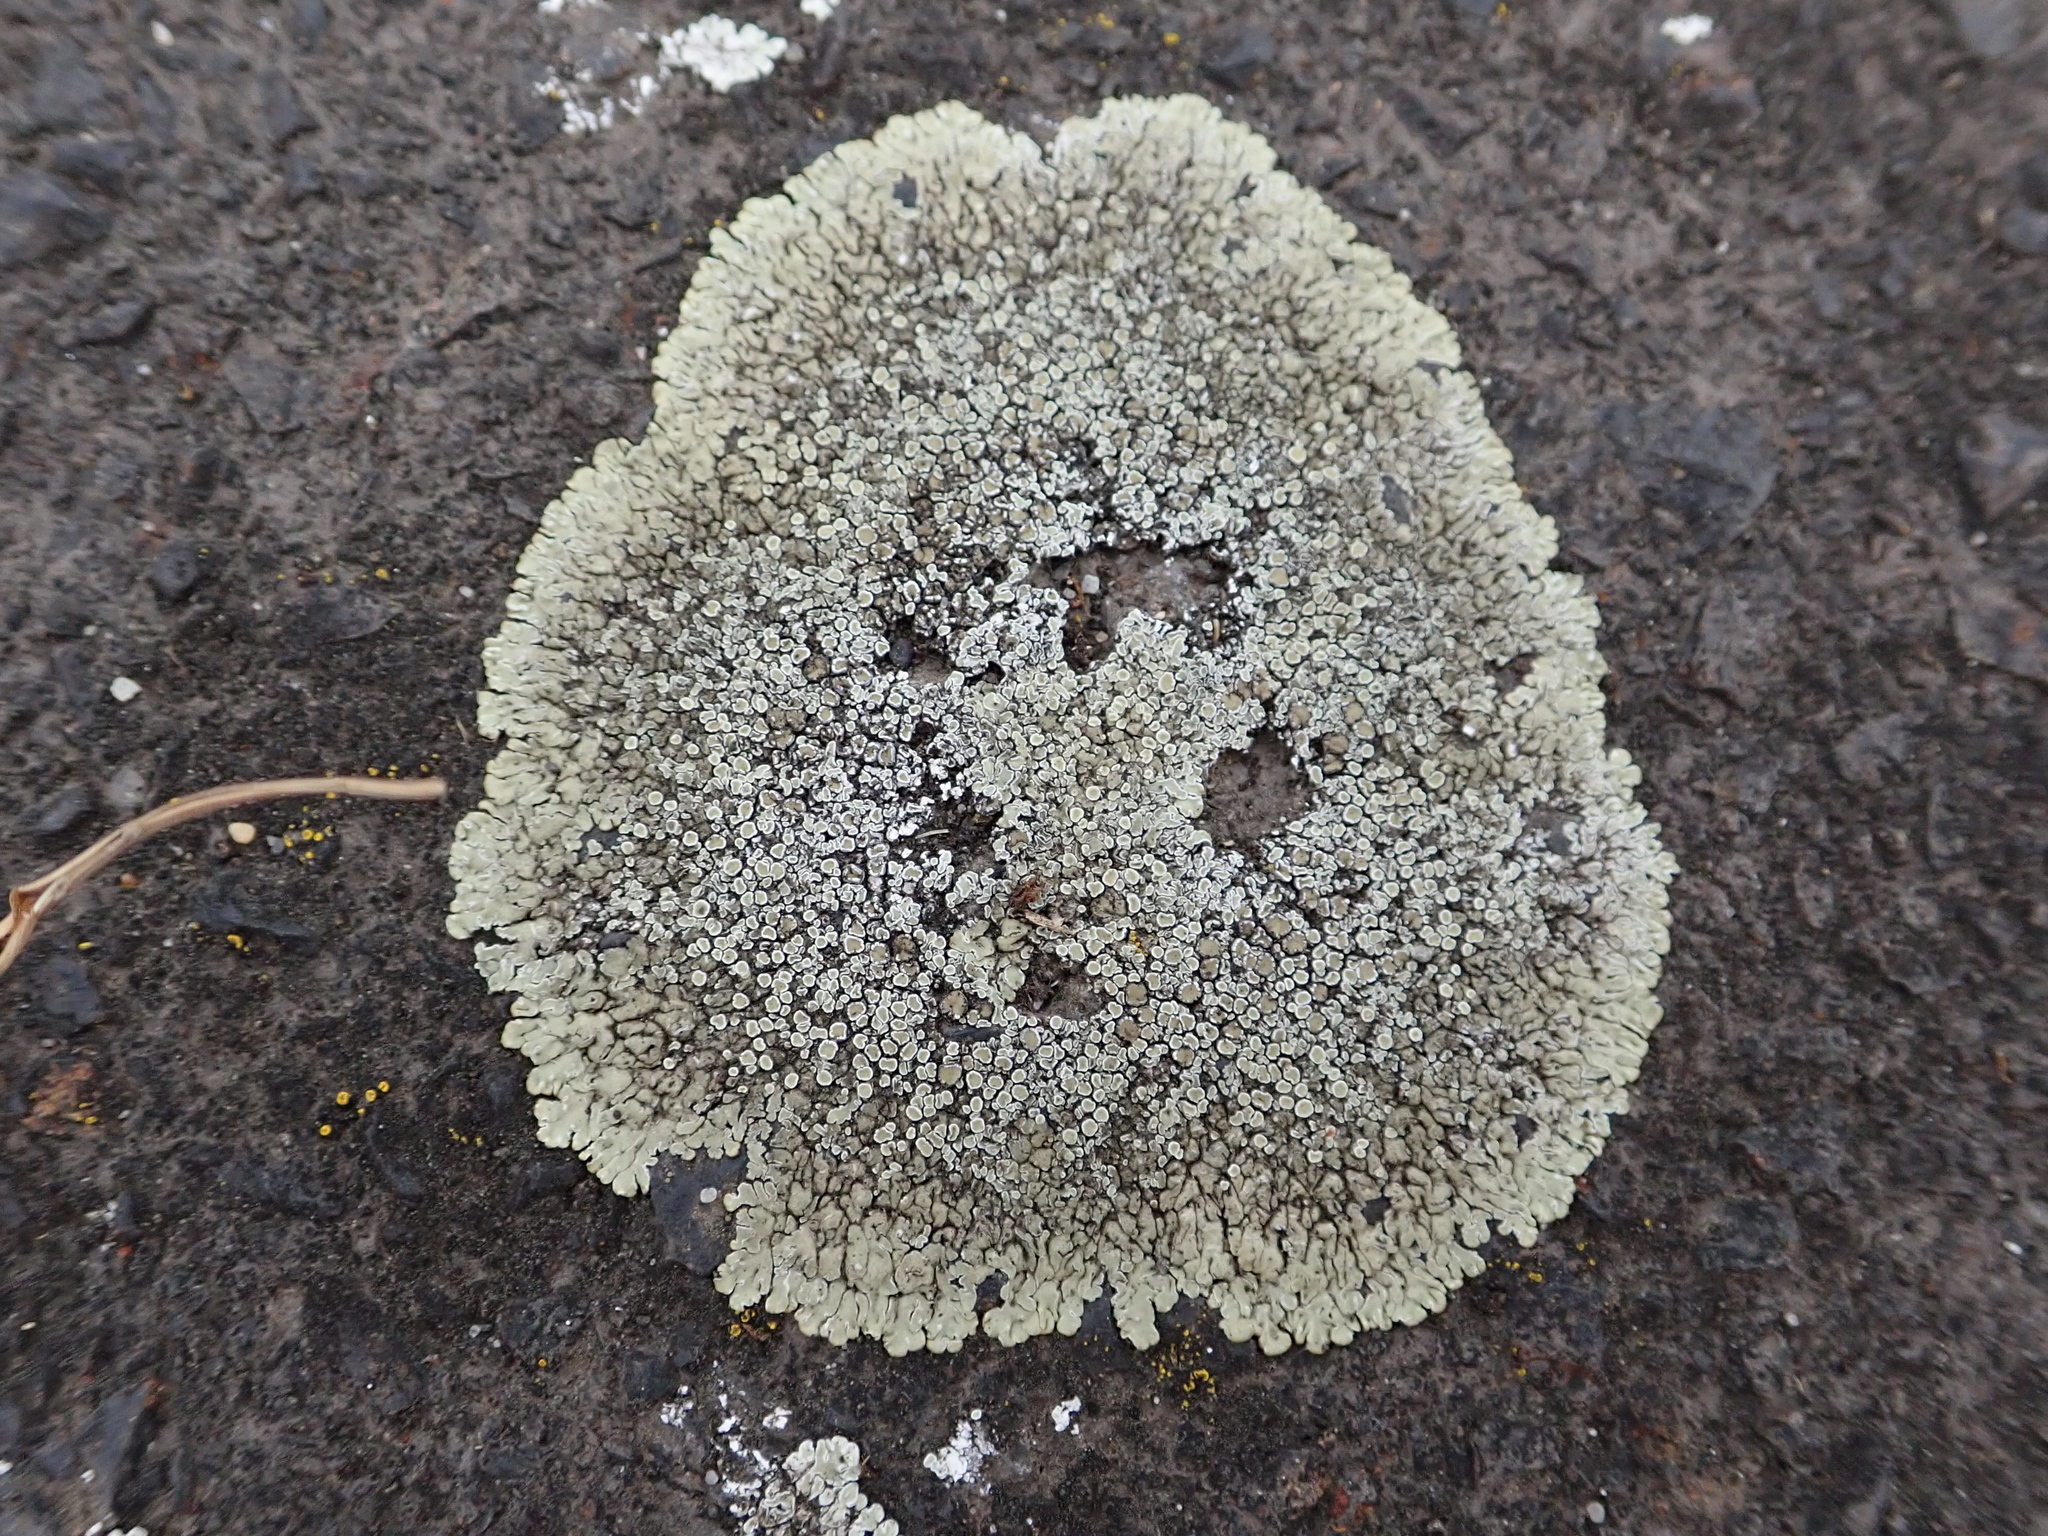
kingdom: Fungi
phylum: Ascomycota
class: Lecanoromycetes
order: Lecanorales
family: Lecanoraceae
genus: Protoparmeliopsis
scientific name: Protoparmeliopsis muralis
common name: Stonewall rim lichen
